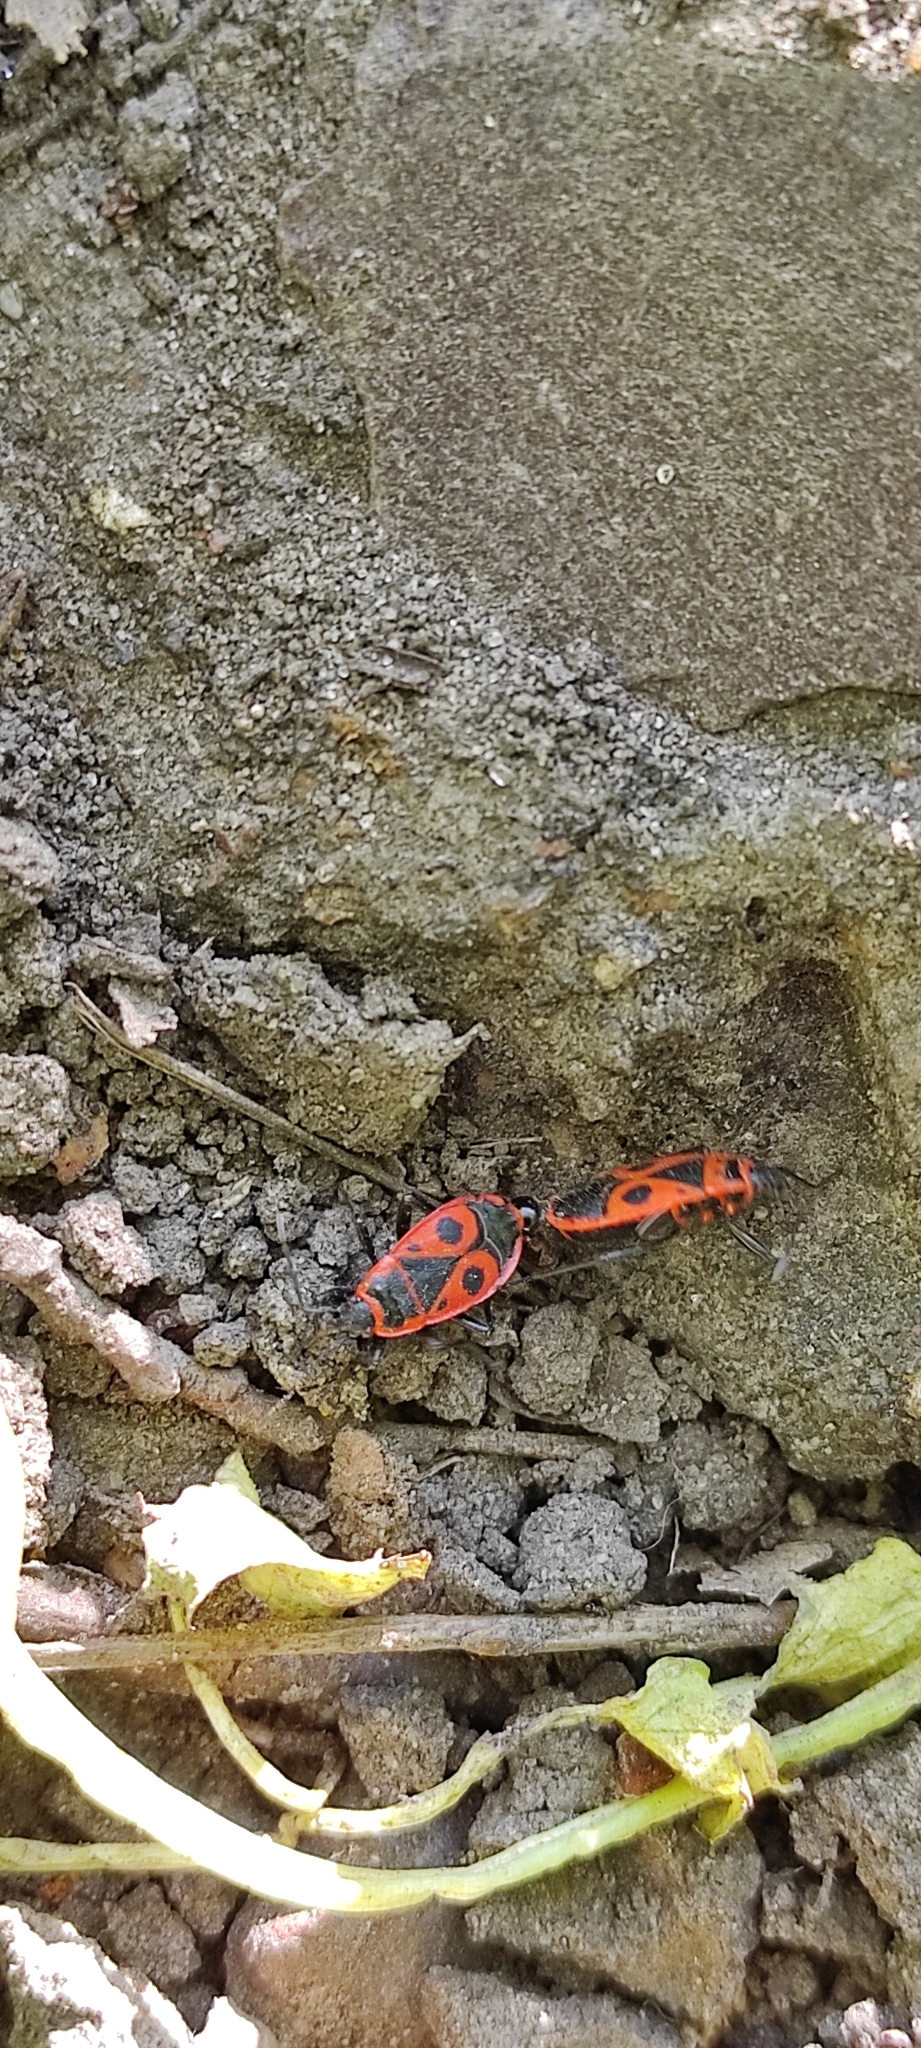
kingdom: Animalia
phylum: Arthropoda
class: Insecta
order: Hemiptera
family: Pyrrhocoridae
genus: Pyrrhocoris
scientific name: Pyrrhocoris apterus
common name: Firebug
